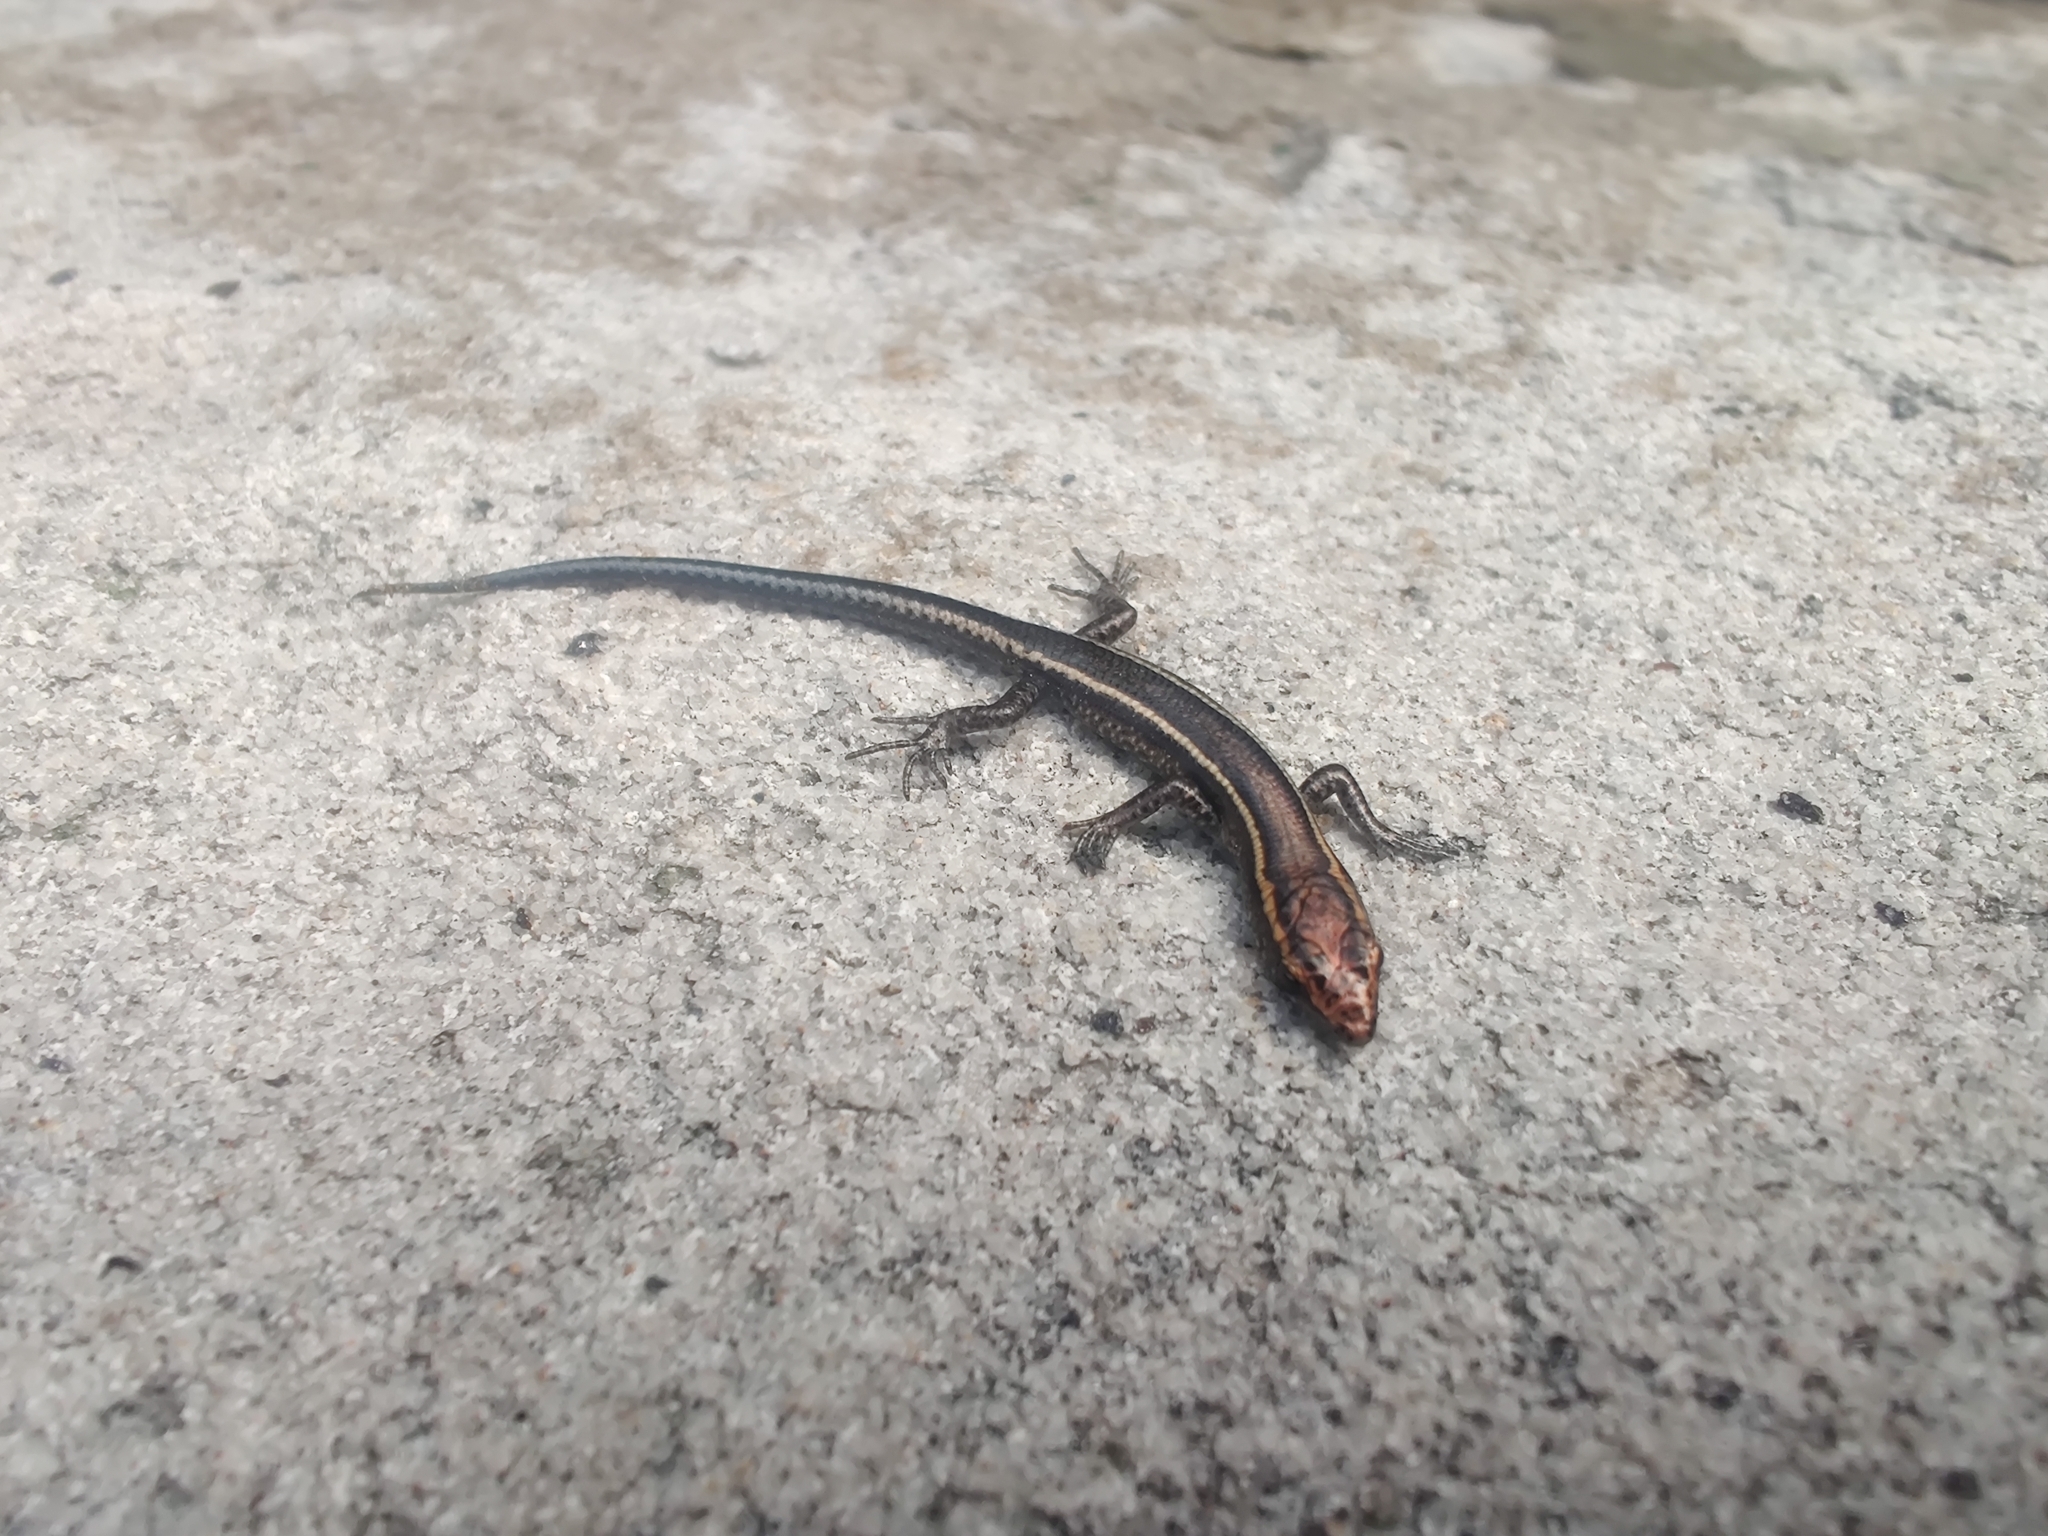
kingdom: Animalia
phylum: Chordata
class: Squamata
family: Scincidae
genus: Cryptoblepharus
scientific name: Cryptoblepharus pulcher
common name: Elegant snake-eyed skink
